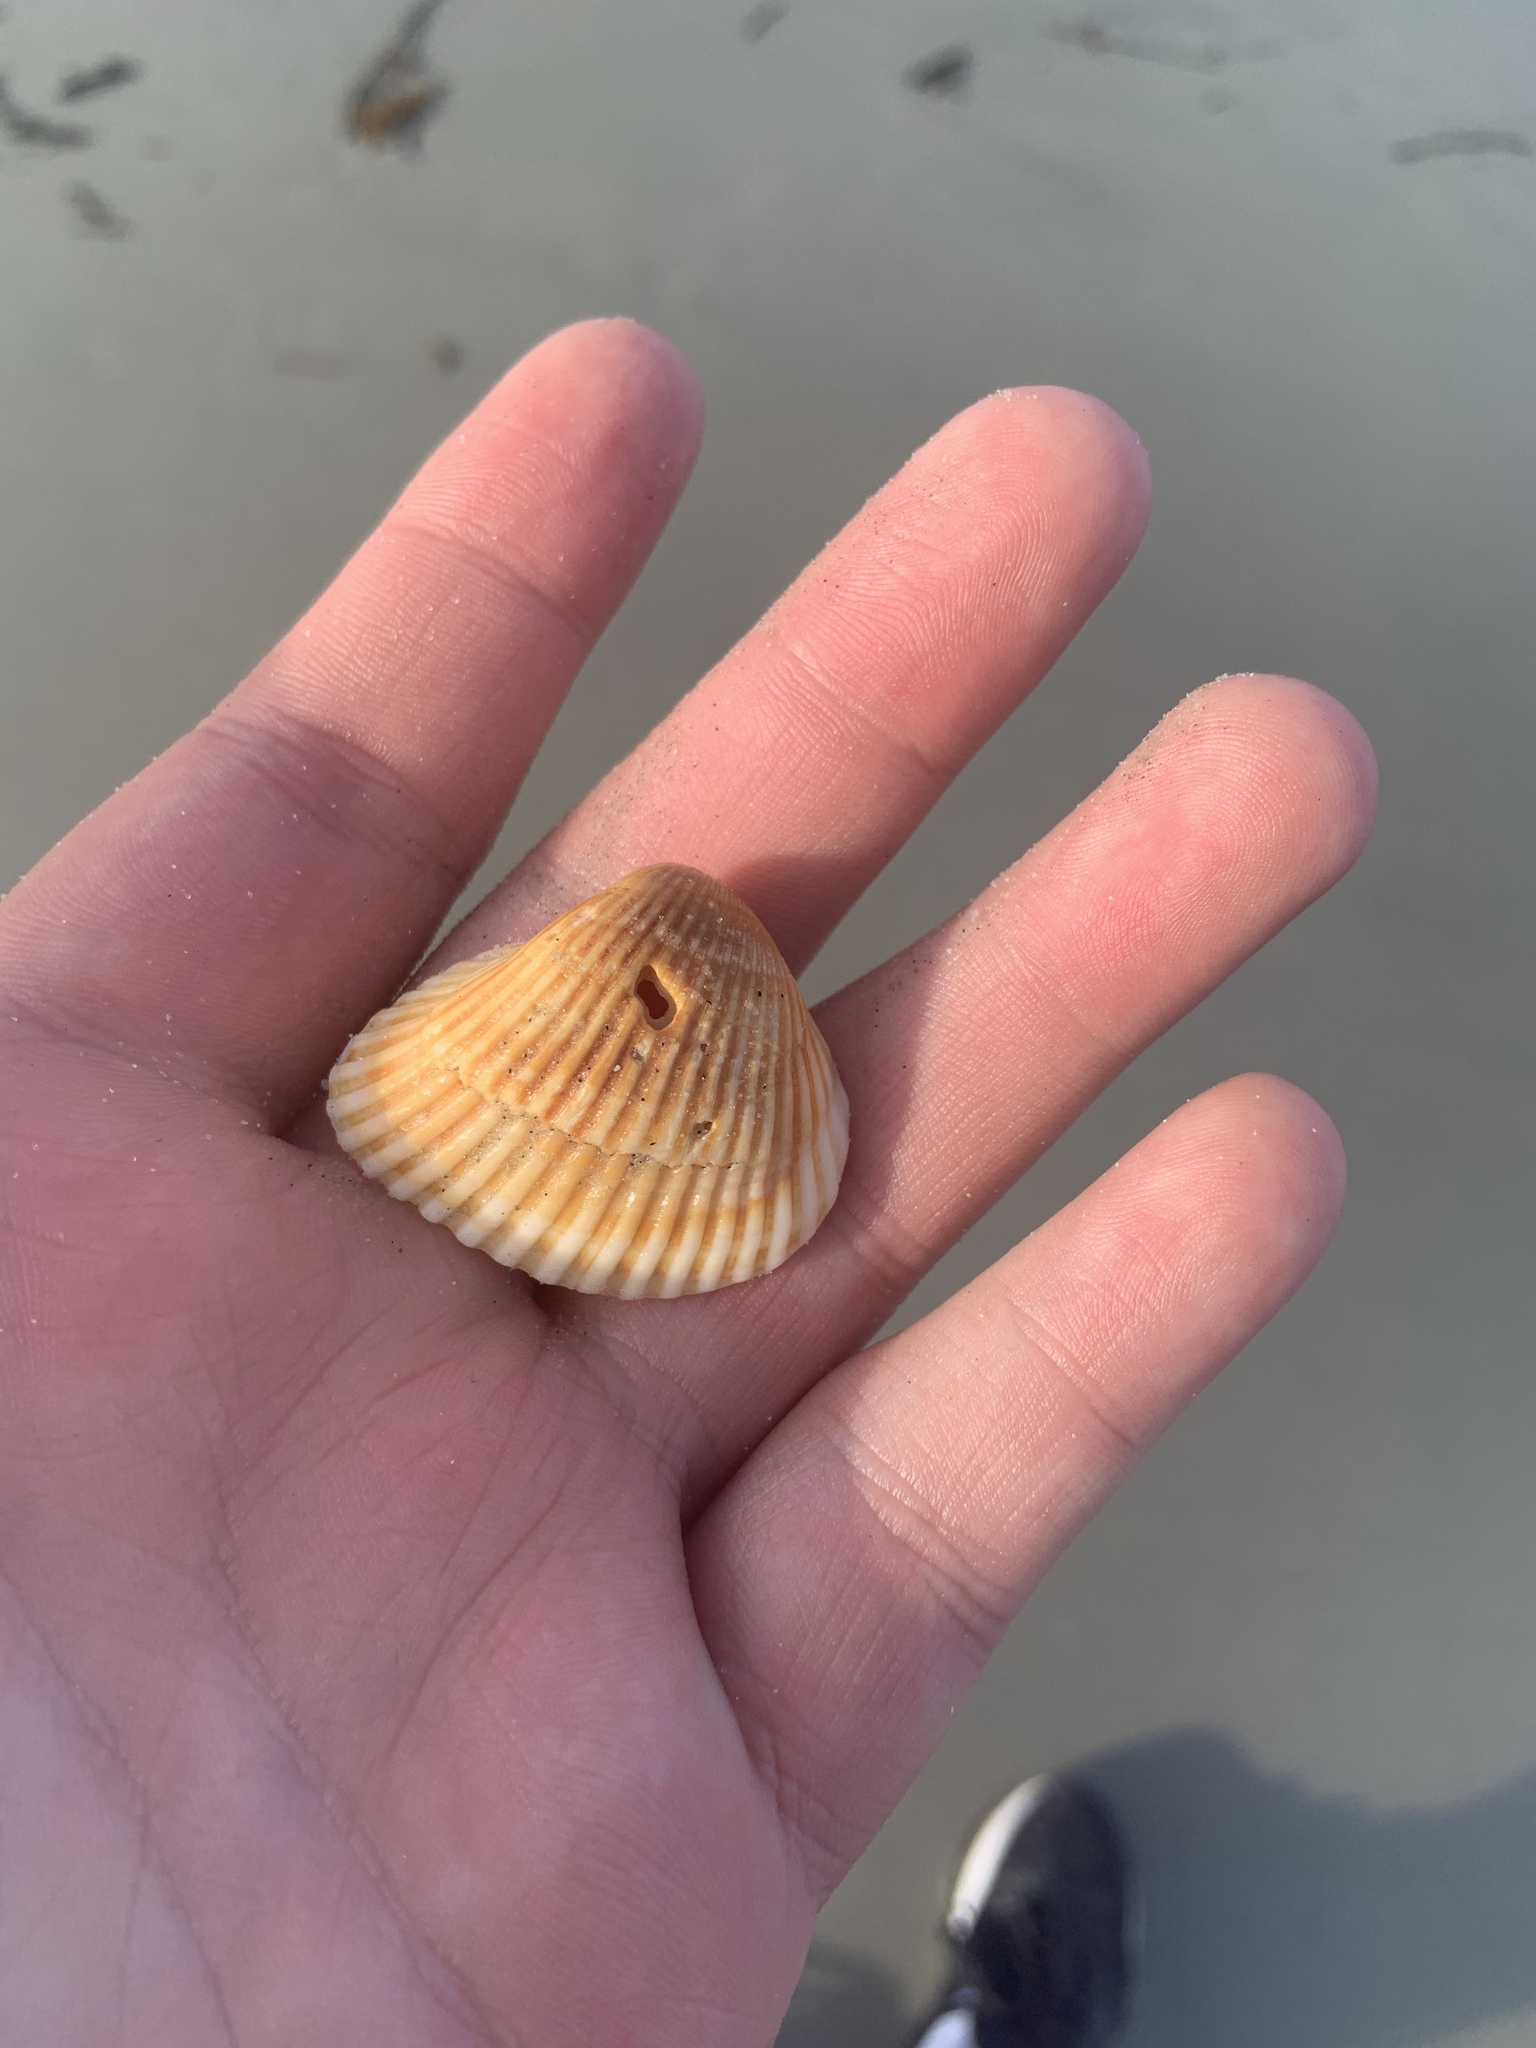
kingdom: Animalia
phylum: Mollusca
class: Bivalvia
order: Arcida
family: Noetiidae
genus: Noetia
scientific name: Noetia ponderosa
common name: Ponderous ark
